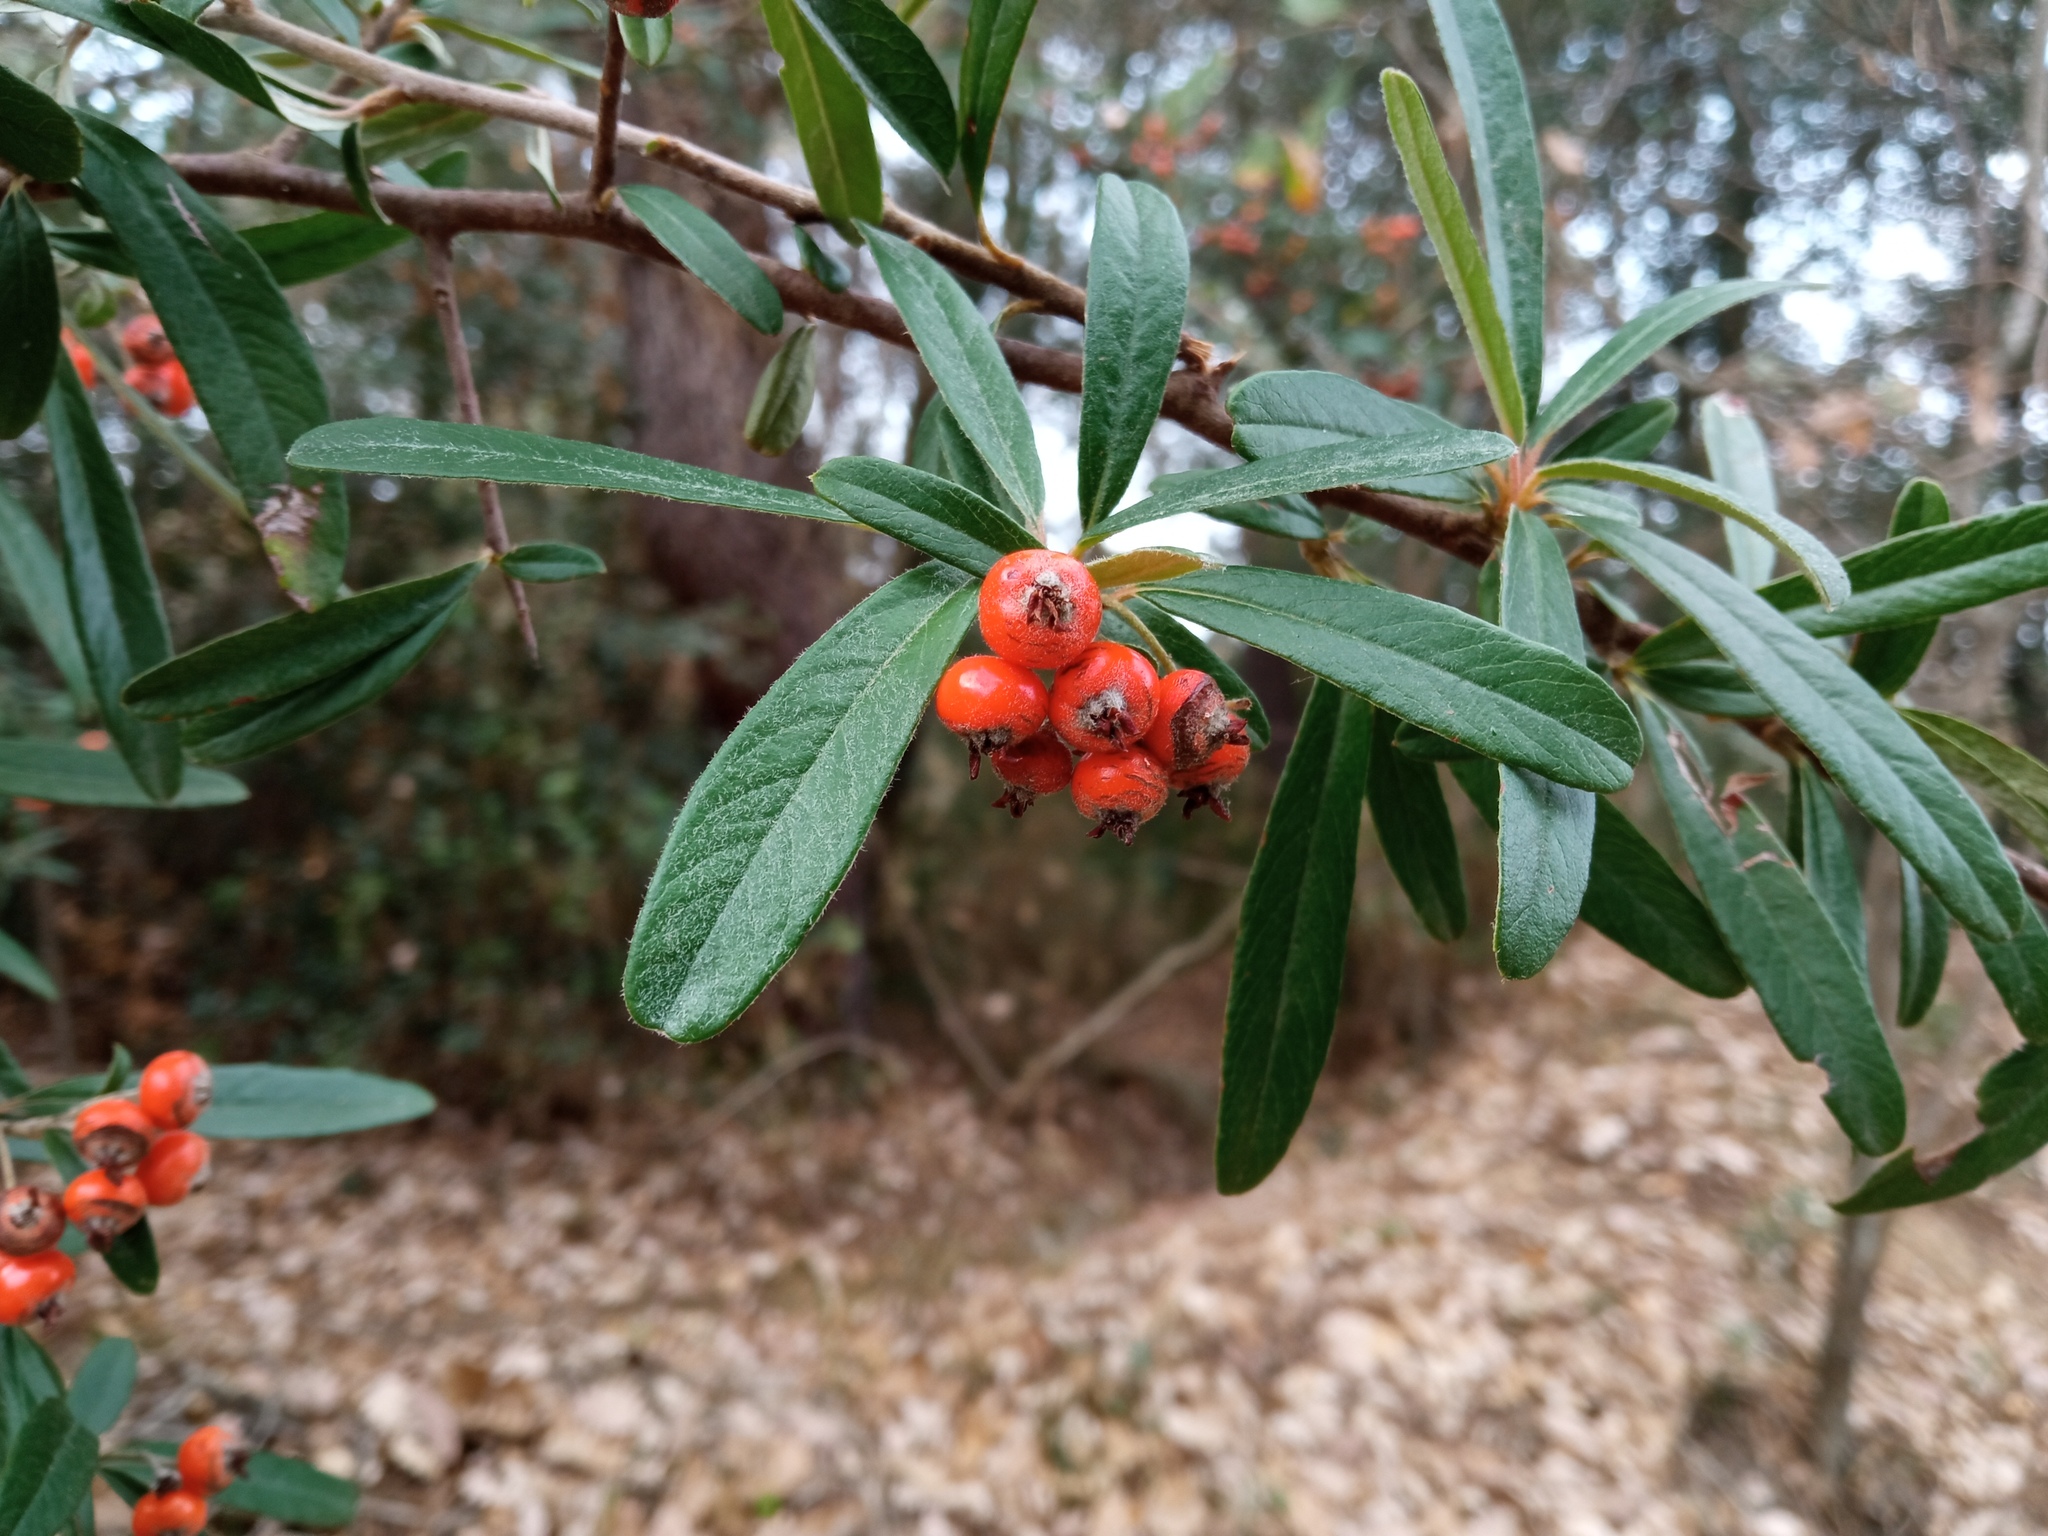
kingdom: Plantae
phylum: Tracheophyta
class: Magnoliopsida
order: Rosales
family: Rosaceae
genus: Pyracantha
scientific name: Pyracantha angustifolia
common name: Narrowleaf firethorn
